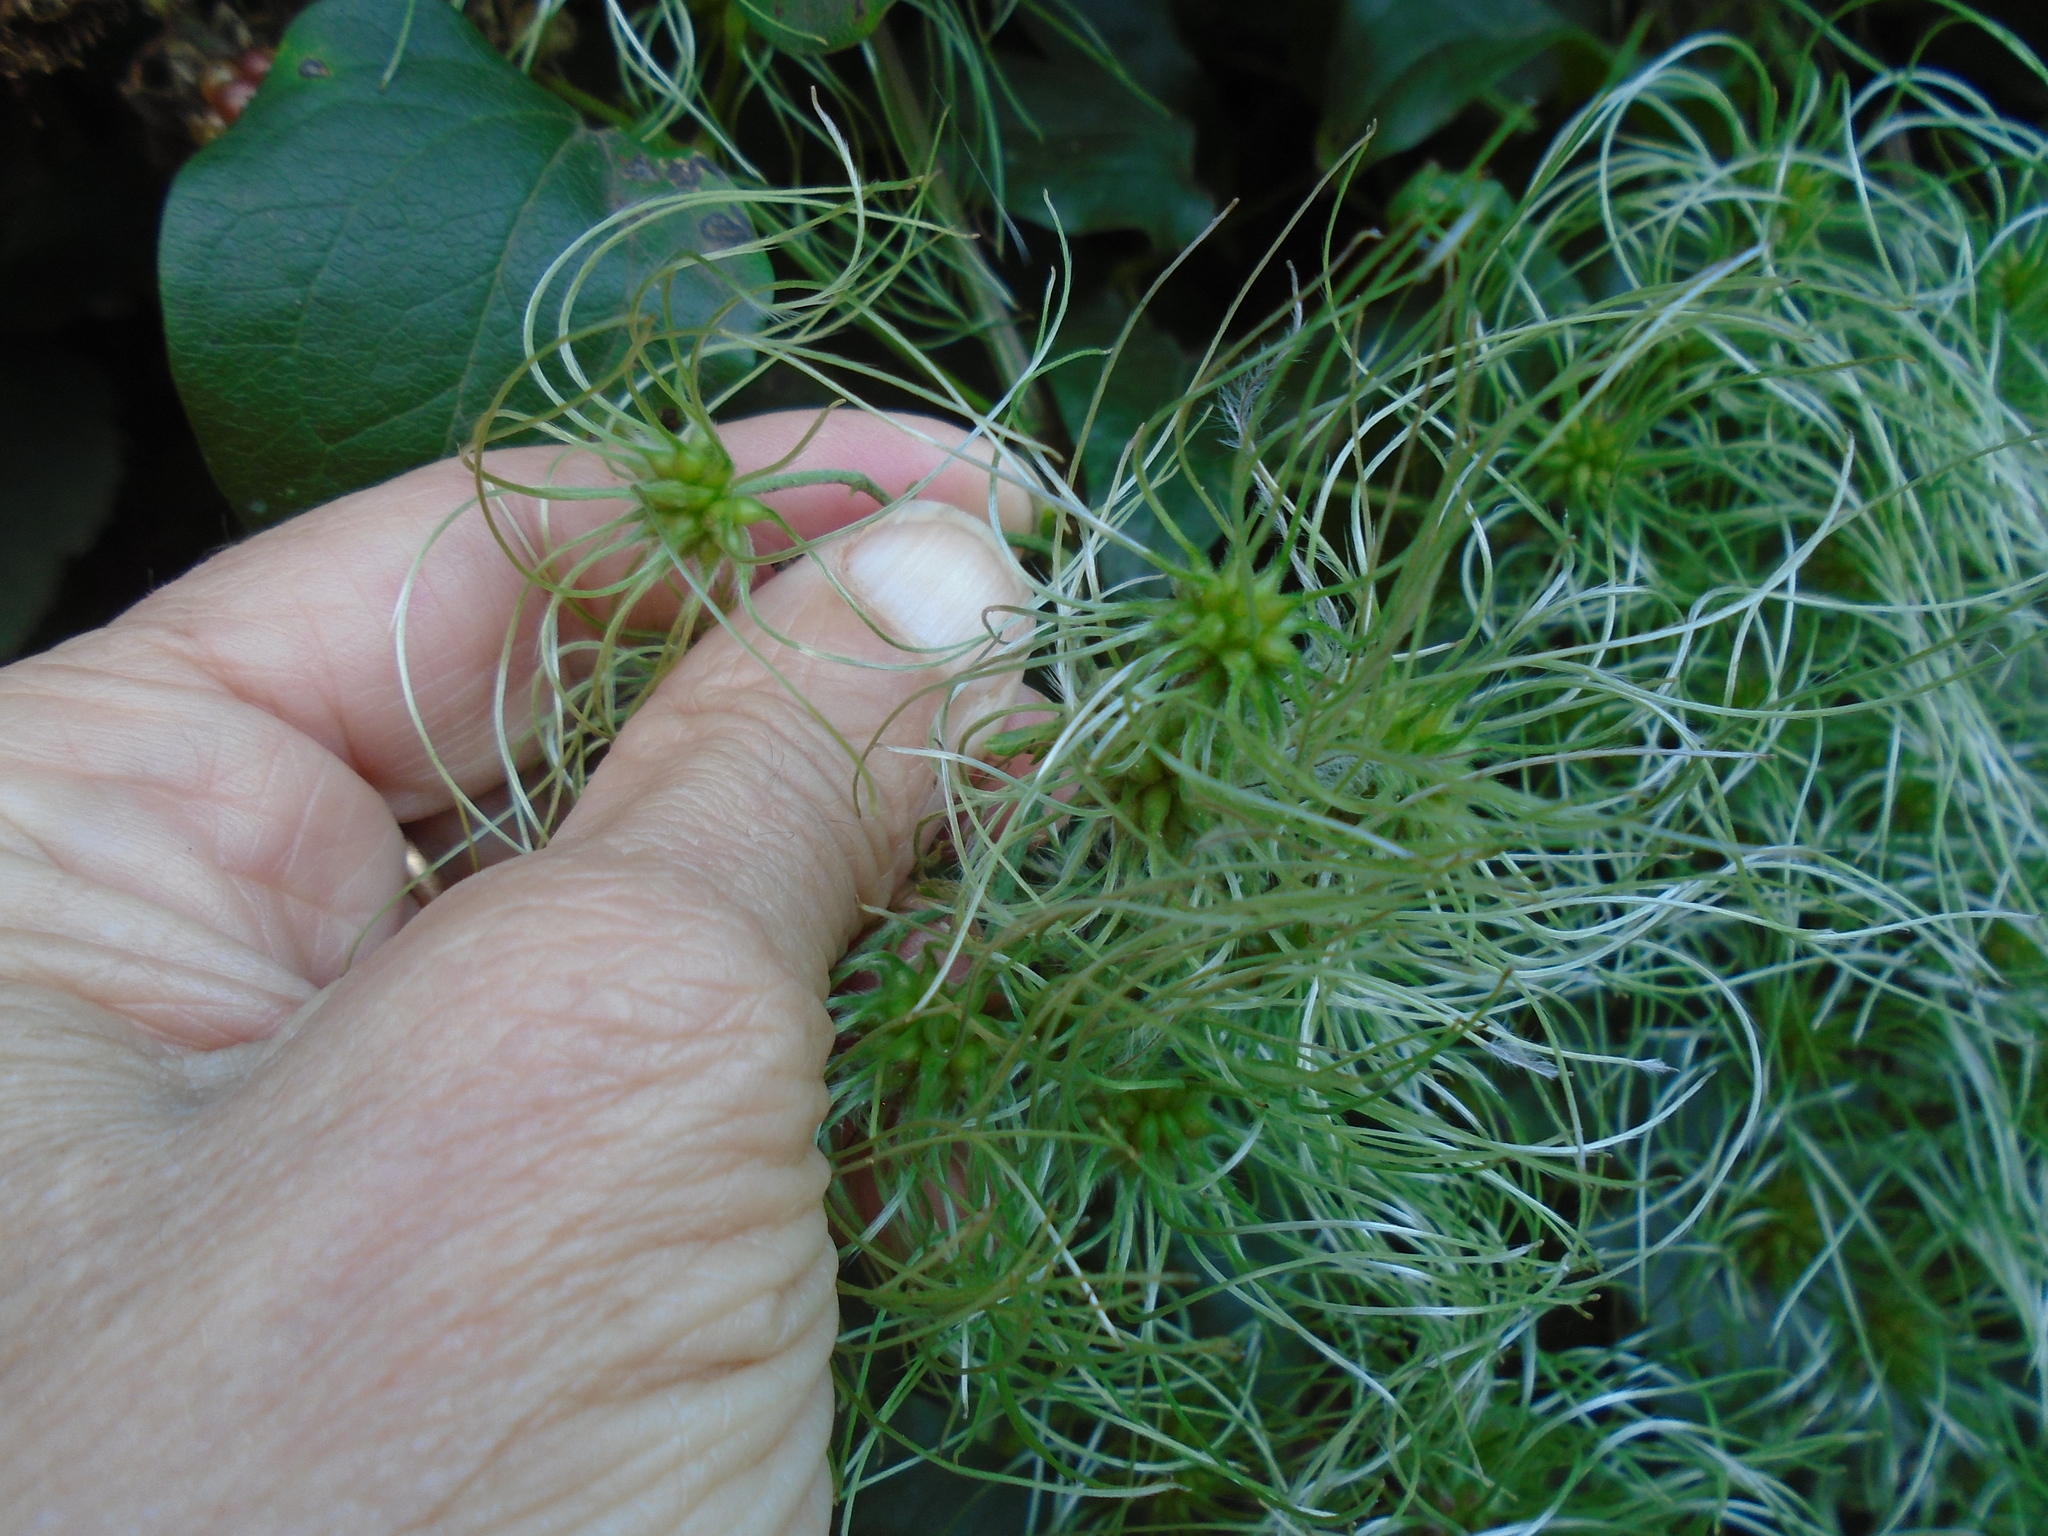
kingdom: Plantae
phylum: Tracheophyta
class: Magnoliopsida
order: Ranunculales
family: Ranunculaceae
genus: Clematis
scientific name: Clematis vitalba
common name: Evergreen clematis
